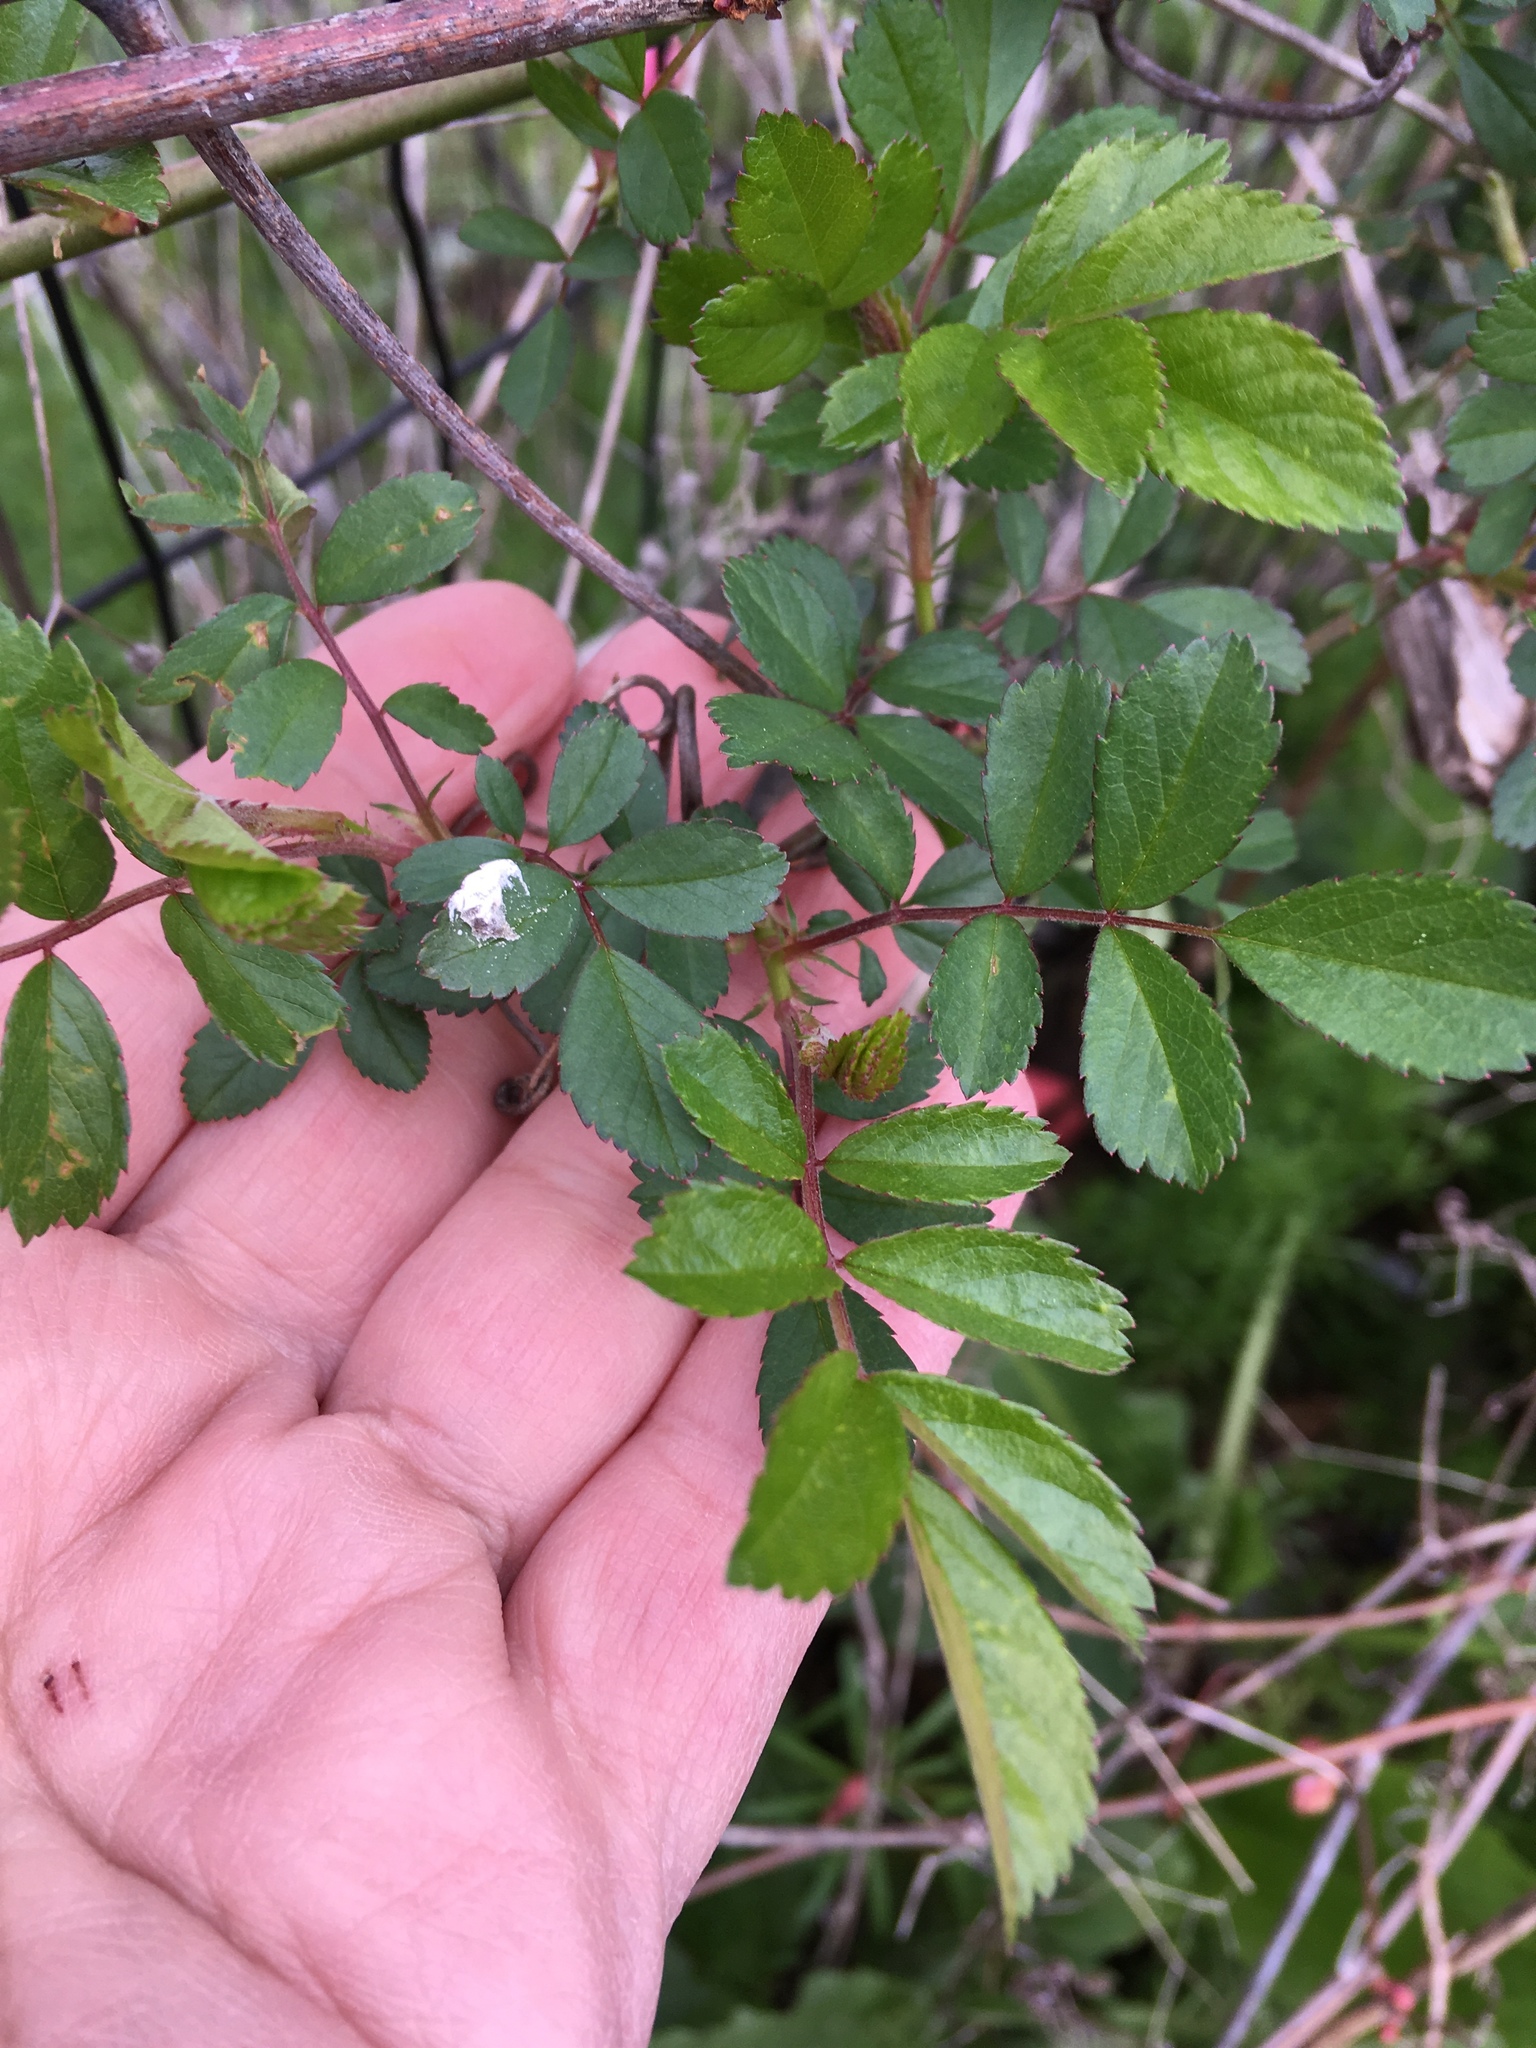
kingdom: Plantae
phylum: Tracheophyta
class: Magnoliopsida
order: Rosales
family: Rosaceae
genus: Rosa
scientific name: Rosa multiflora
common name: Multiflora rose
